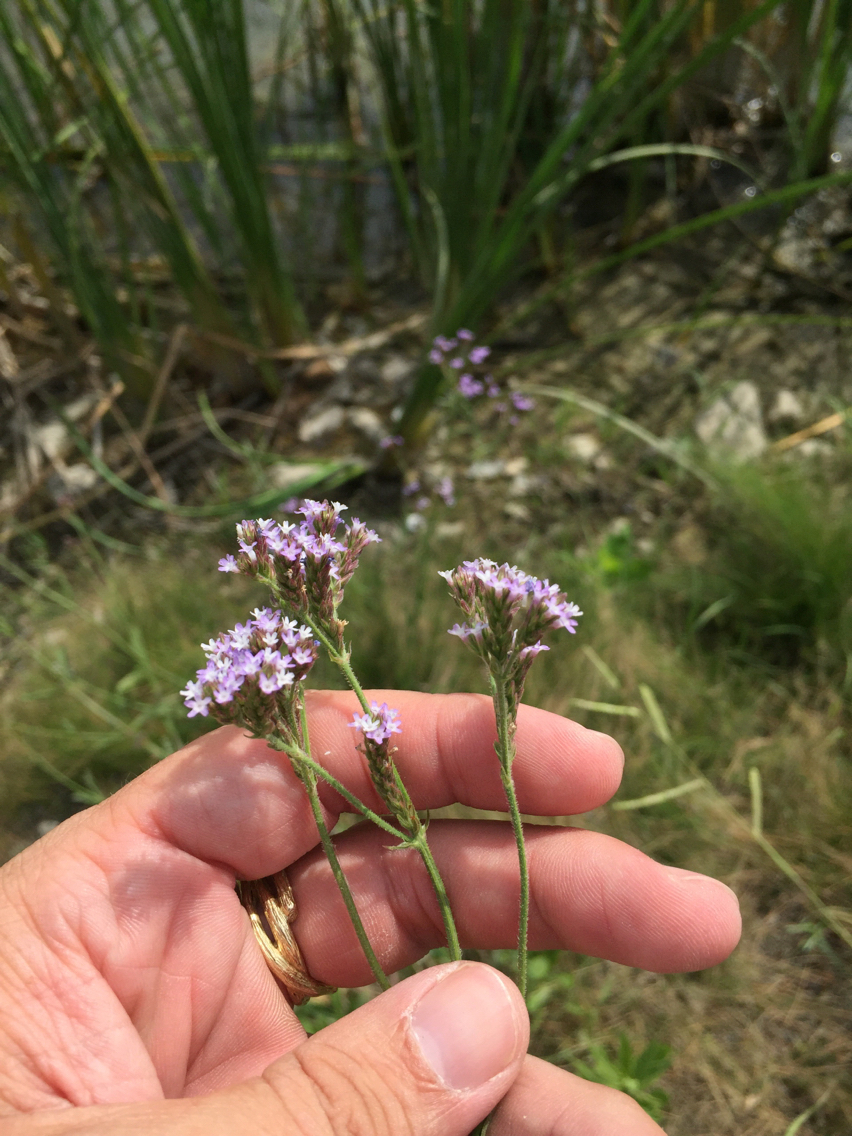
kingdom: Plantae
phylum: Tracheophyta
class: Magnoliopsida
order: Lamiales
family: Verbenaceae
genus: Verbena
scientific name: Verbena brasiliensis
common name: Brazilian vervain
